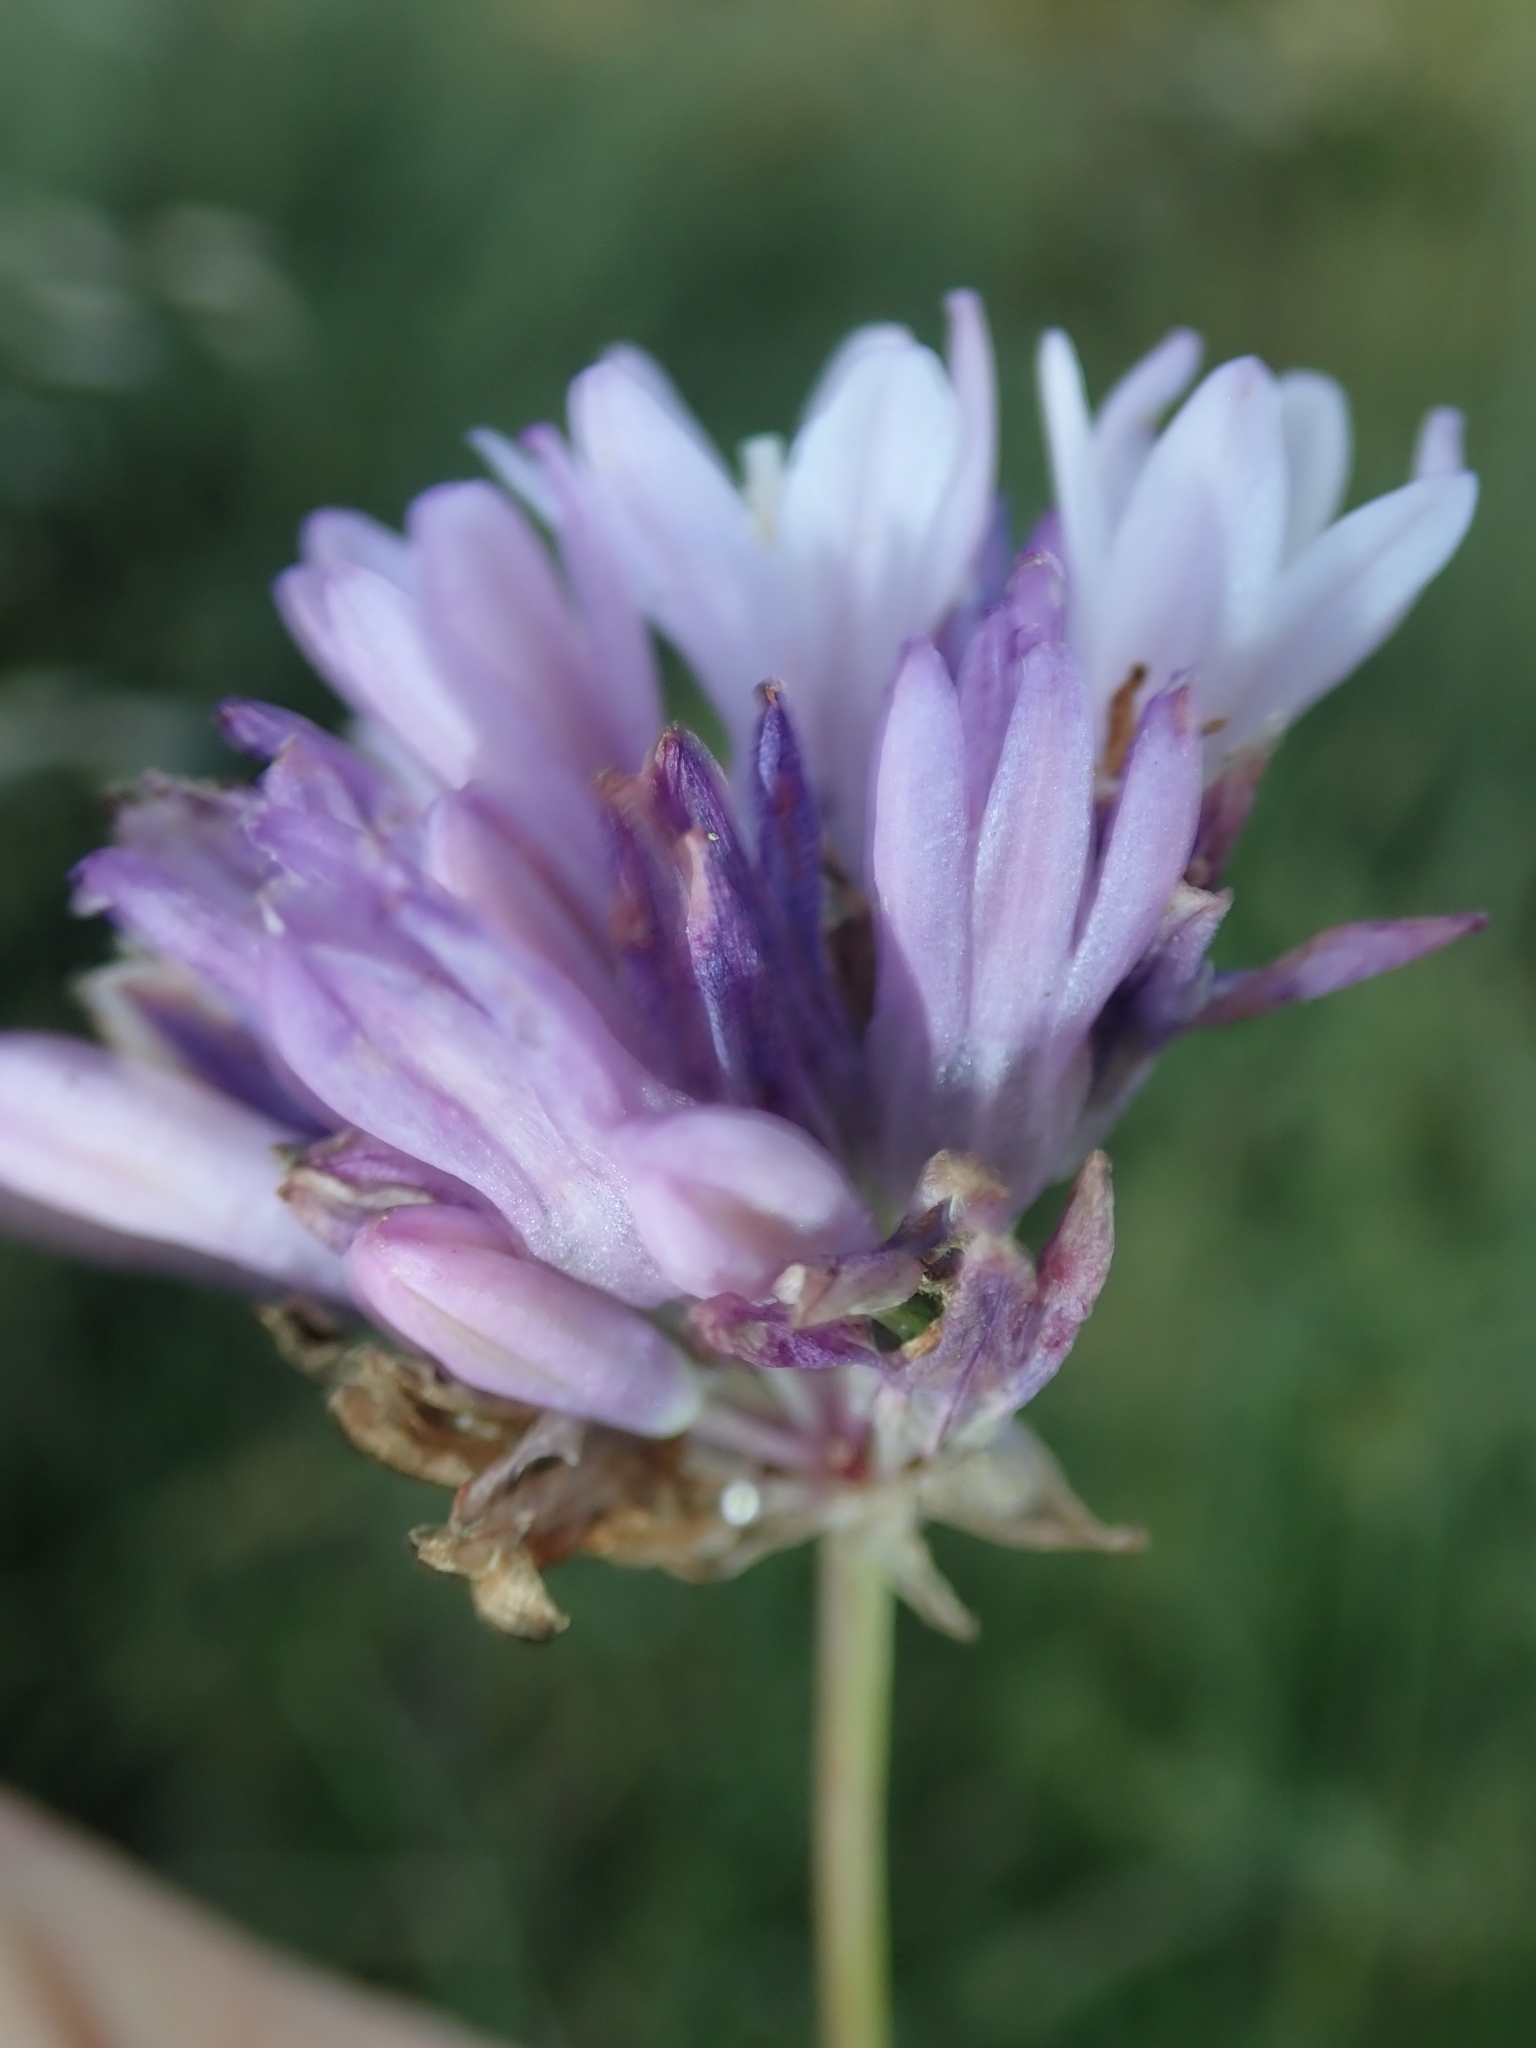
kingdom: Plantae
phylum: Tracheophyta
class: Liliopsida
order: Asparagales
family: Asparagaceae
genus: Dipterostemon
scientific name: Dipterostemon capitatus
